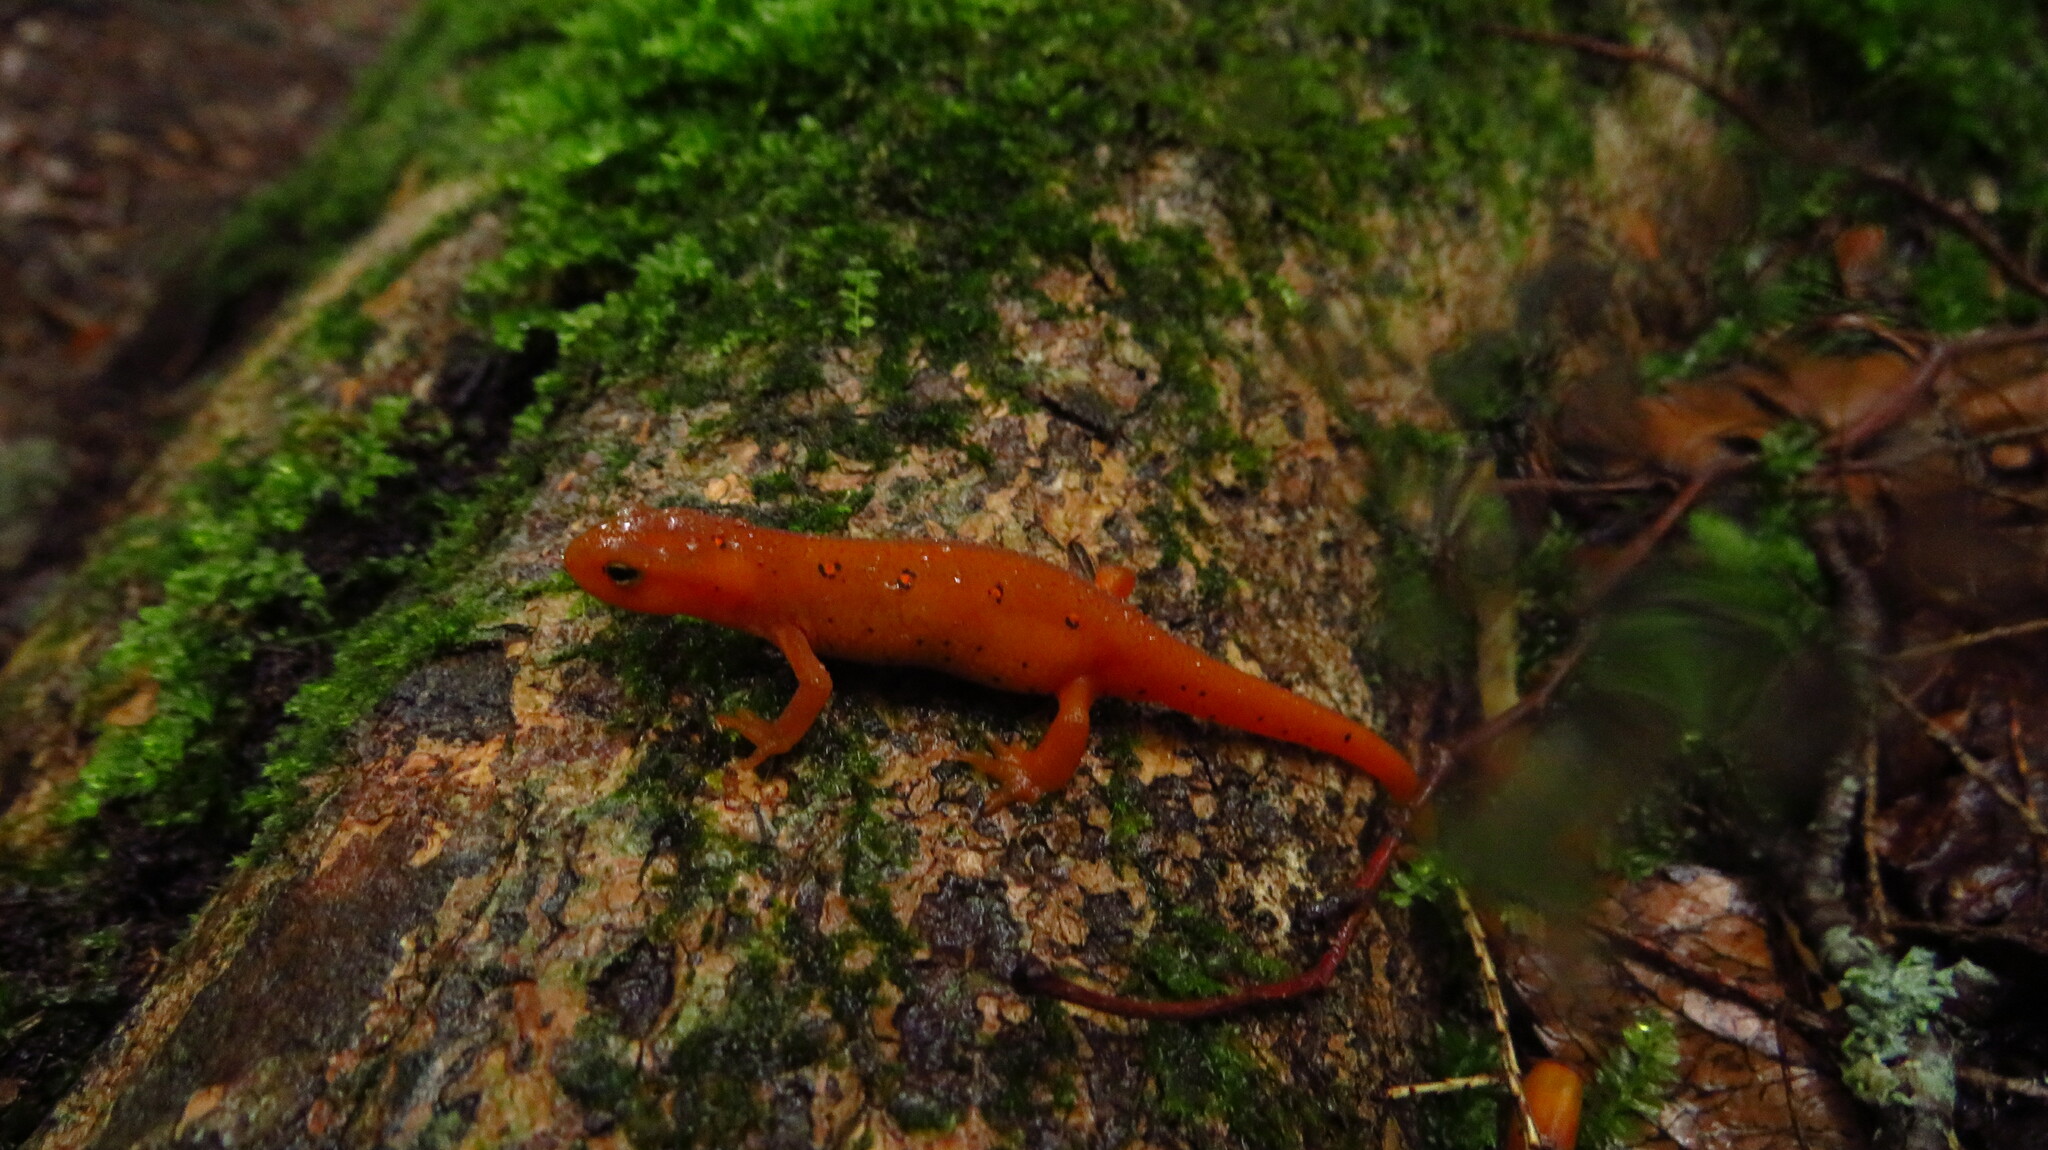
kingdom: Animalia
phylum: Chordata
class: Amphibia
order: Caudata
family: Salamandridae
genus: Notophthalmus
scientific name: Notophthalmus viridescens
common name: Eastern newt
